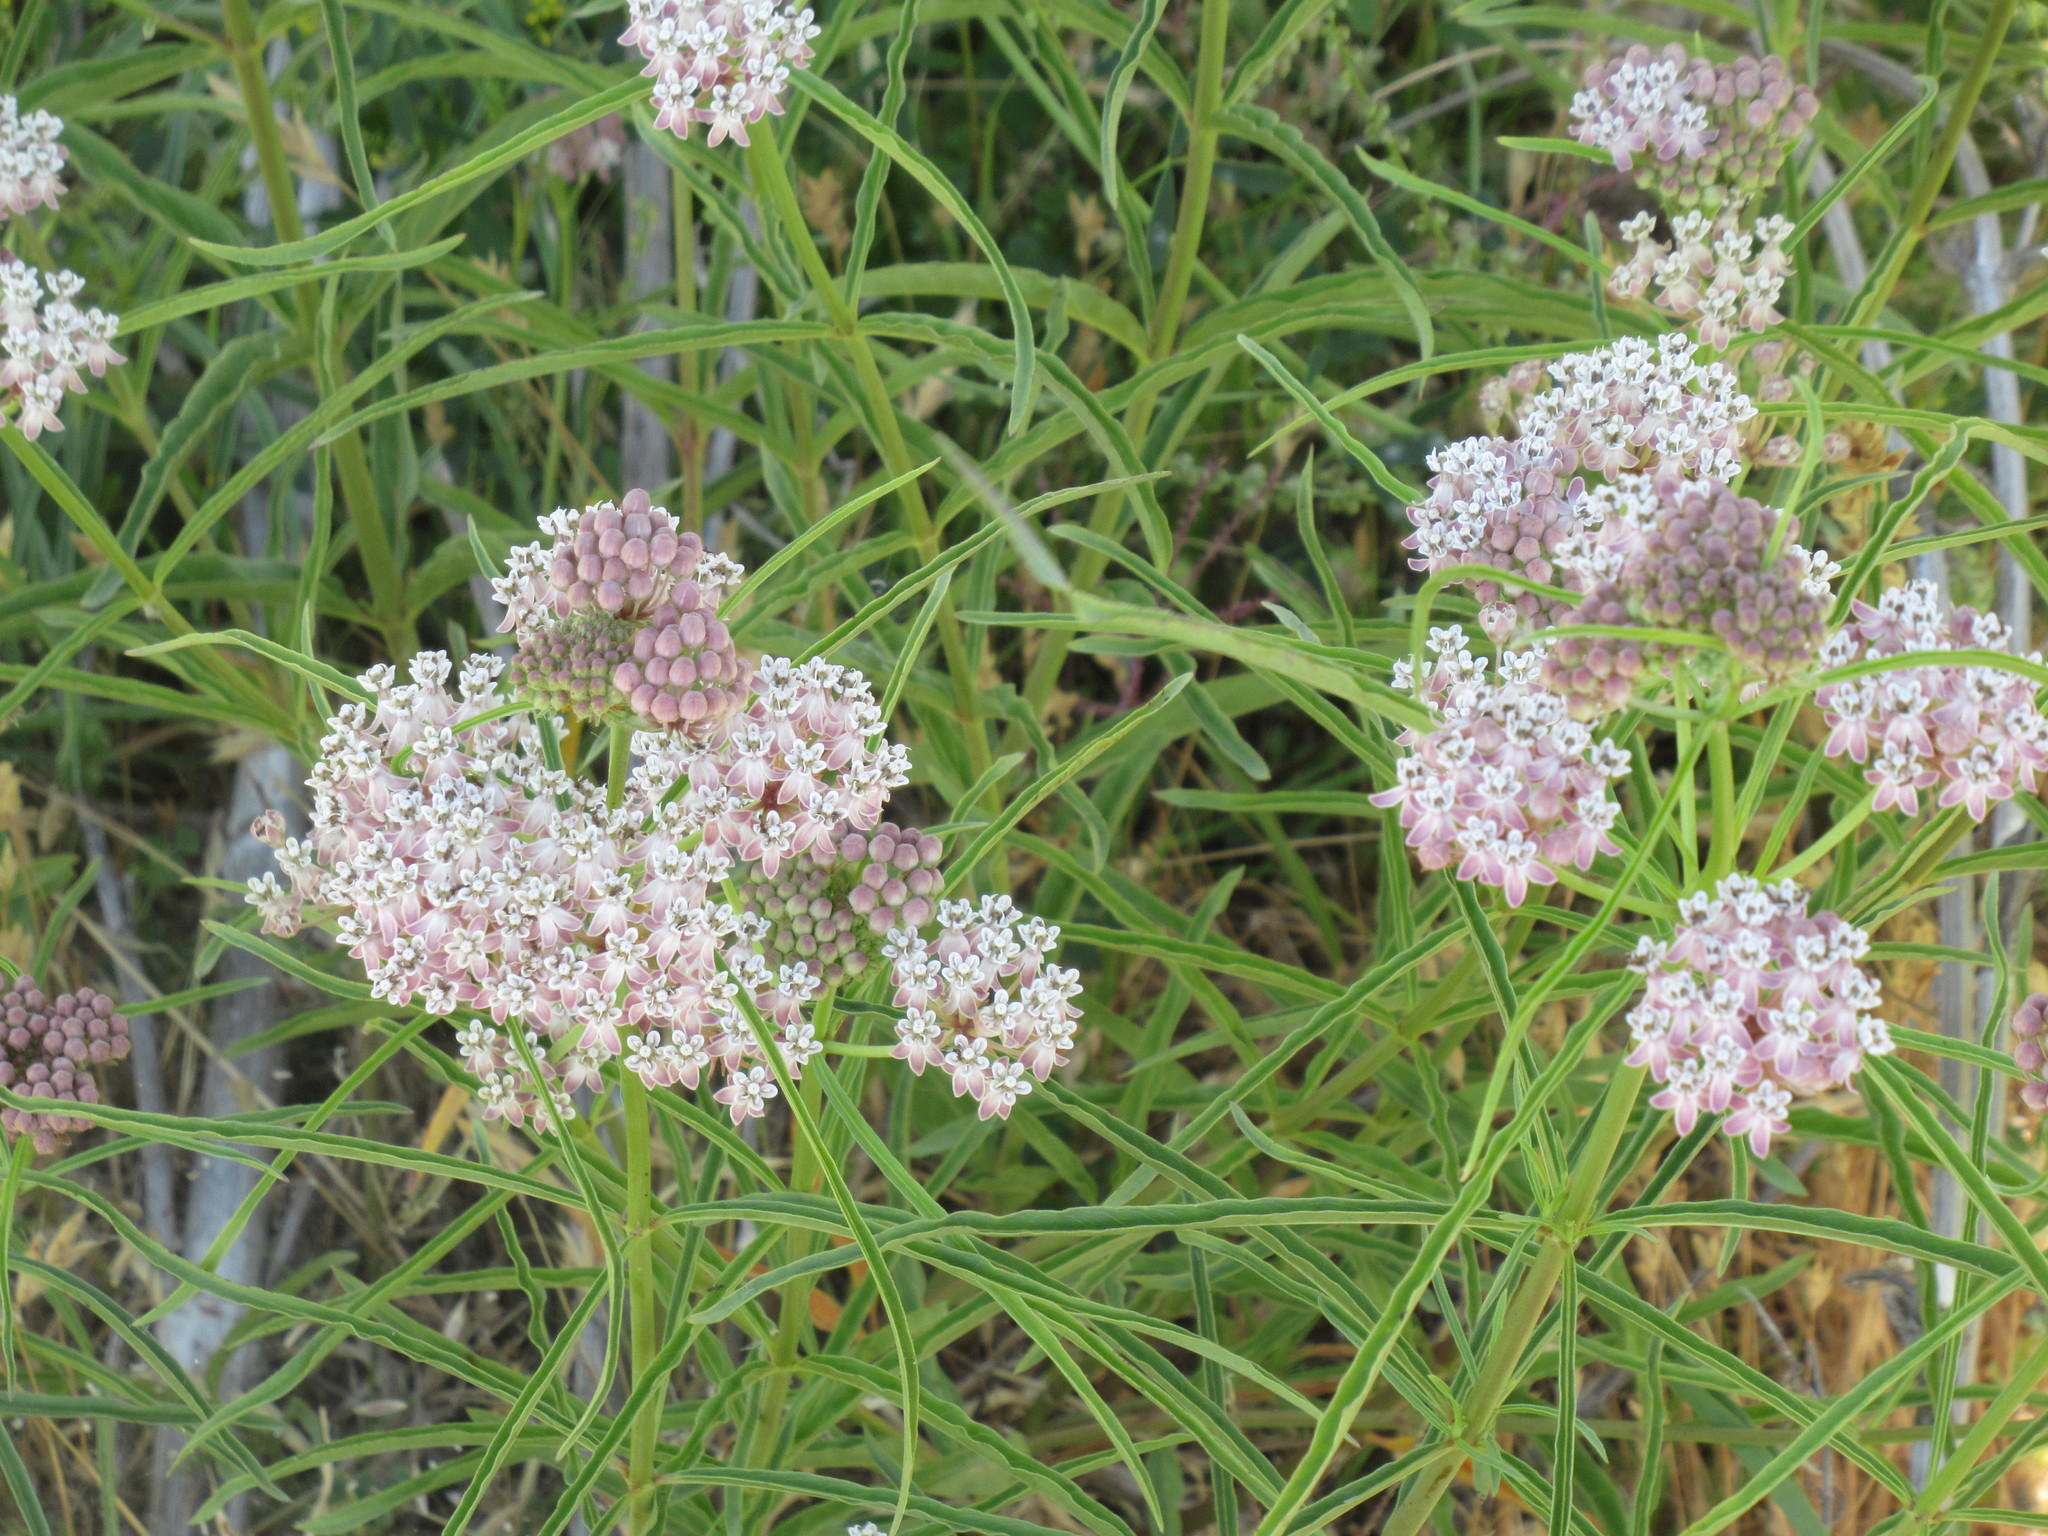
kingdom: Plantae
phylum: Tracheophyta
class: Magnoliopsida
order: Gentianales
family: Apocynaceae
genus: Asclepias
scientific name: Asclepias fascicularis
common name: Mexican milkweed
